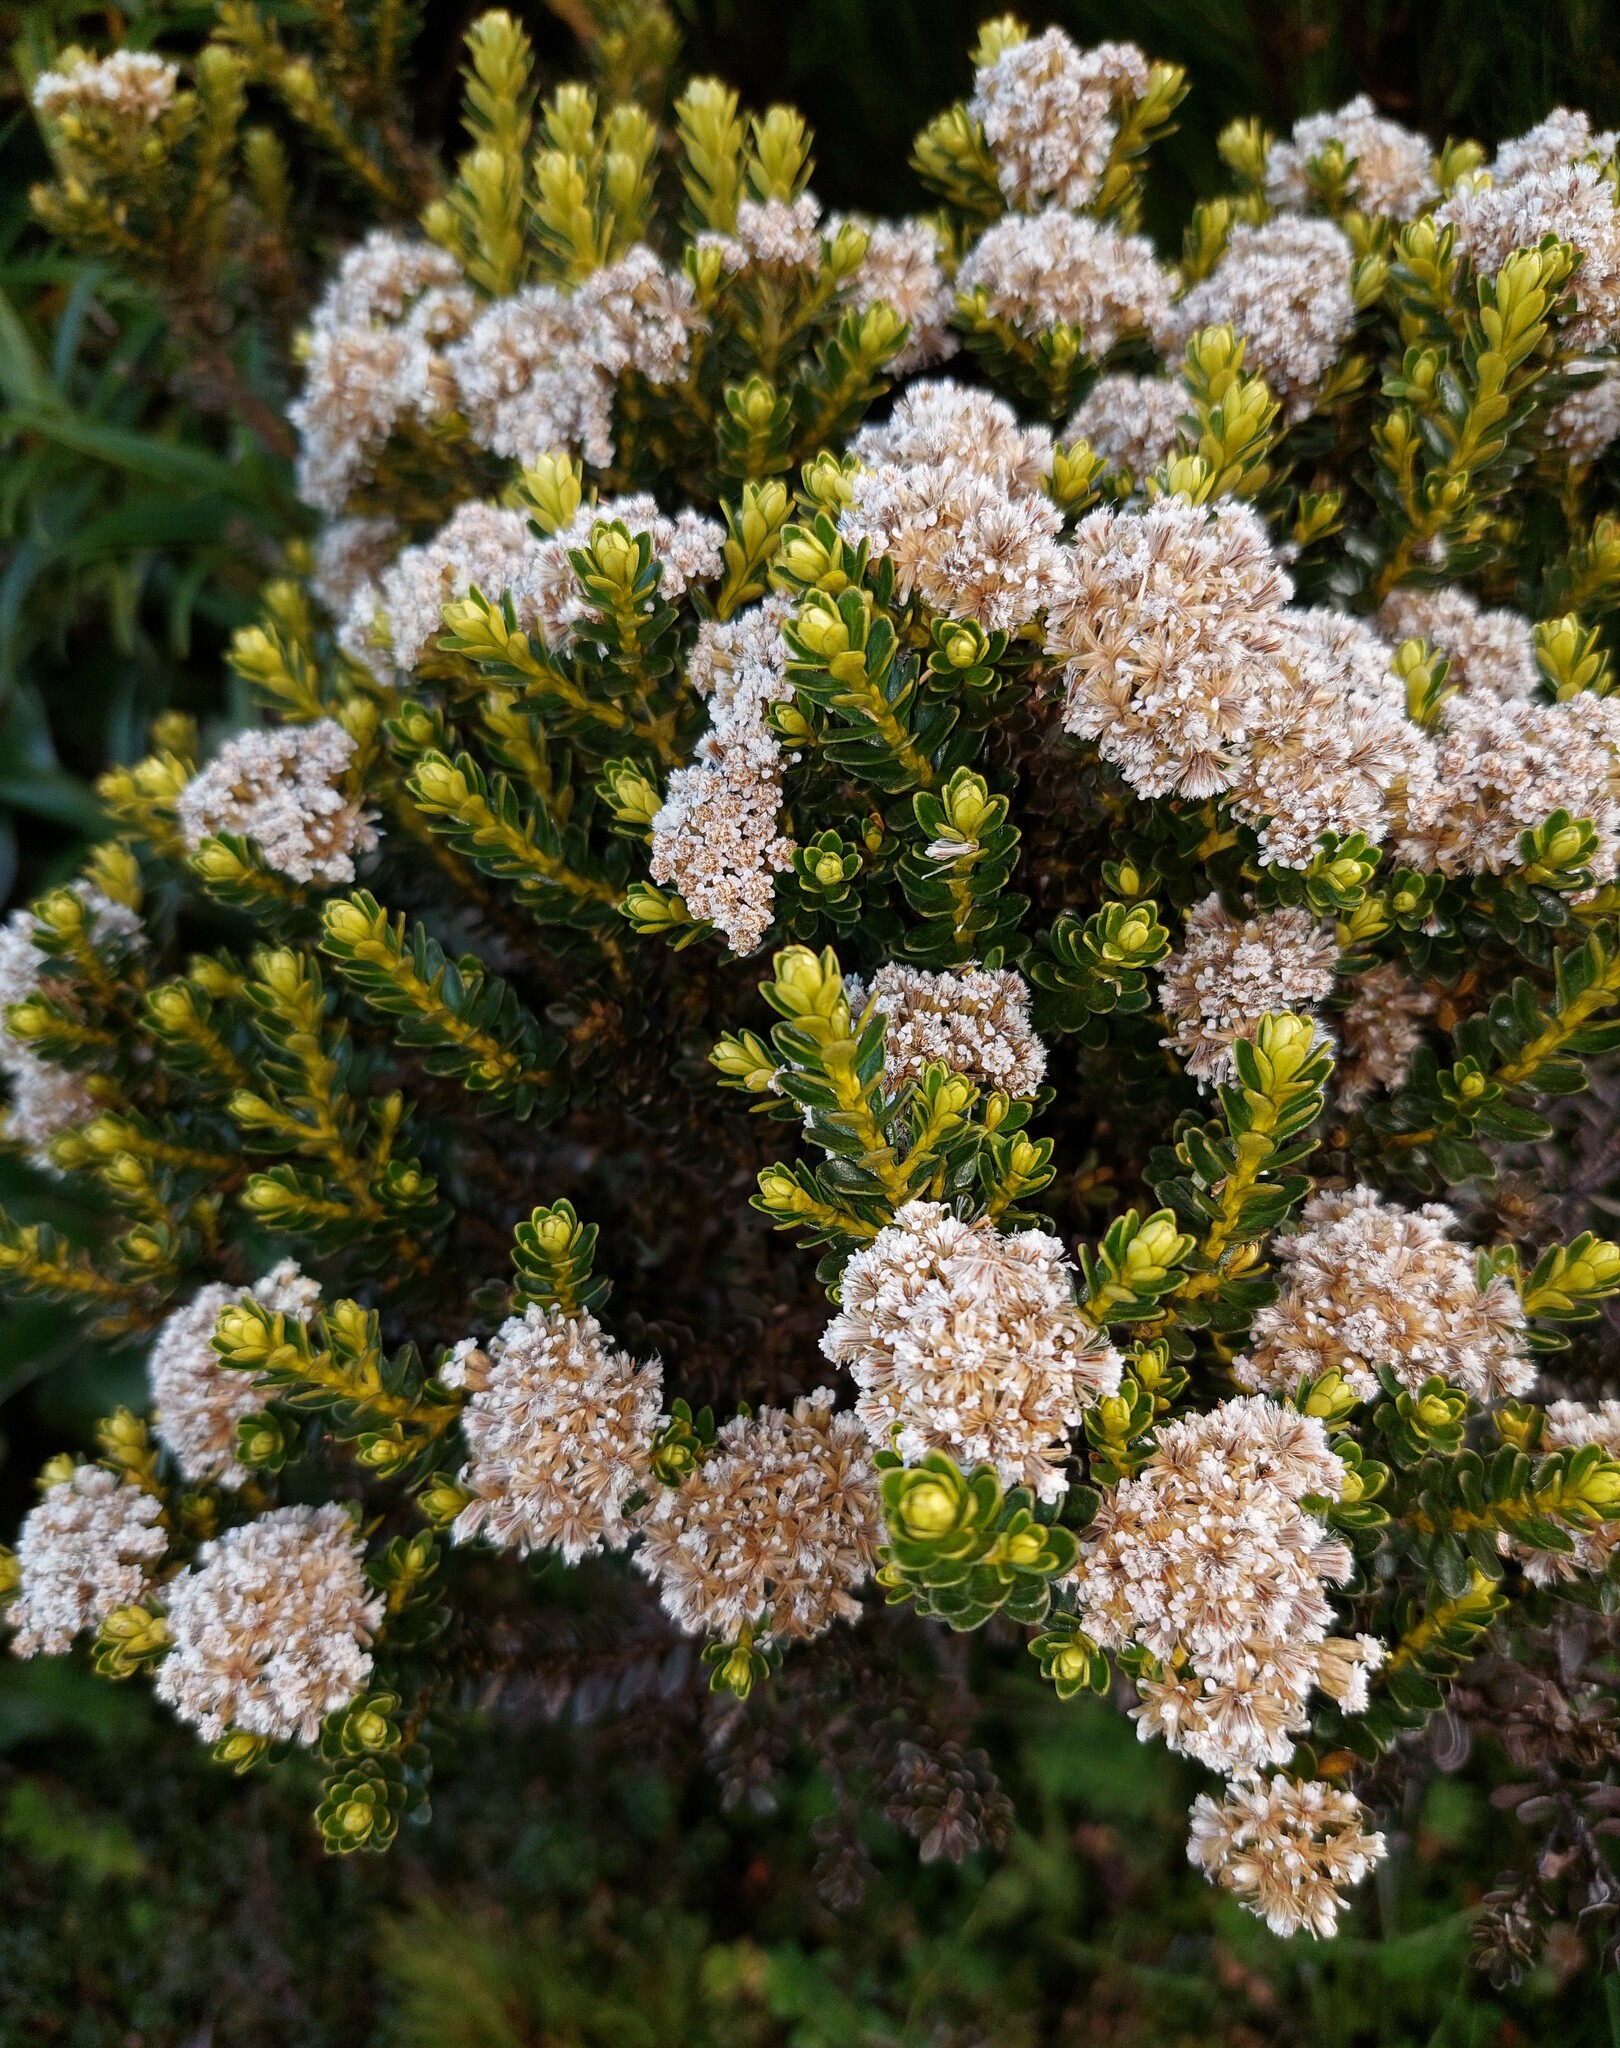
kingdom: Plantae
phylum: Tracheophyta
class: Magnoliopsida
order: Asterales
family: Asteraceae
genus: Ozothamnus
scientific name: Ozothamnus leptophyllus
